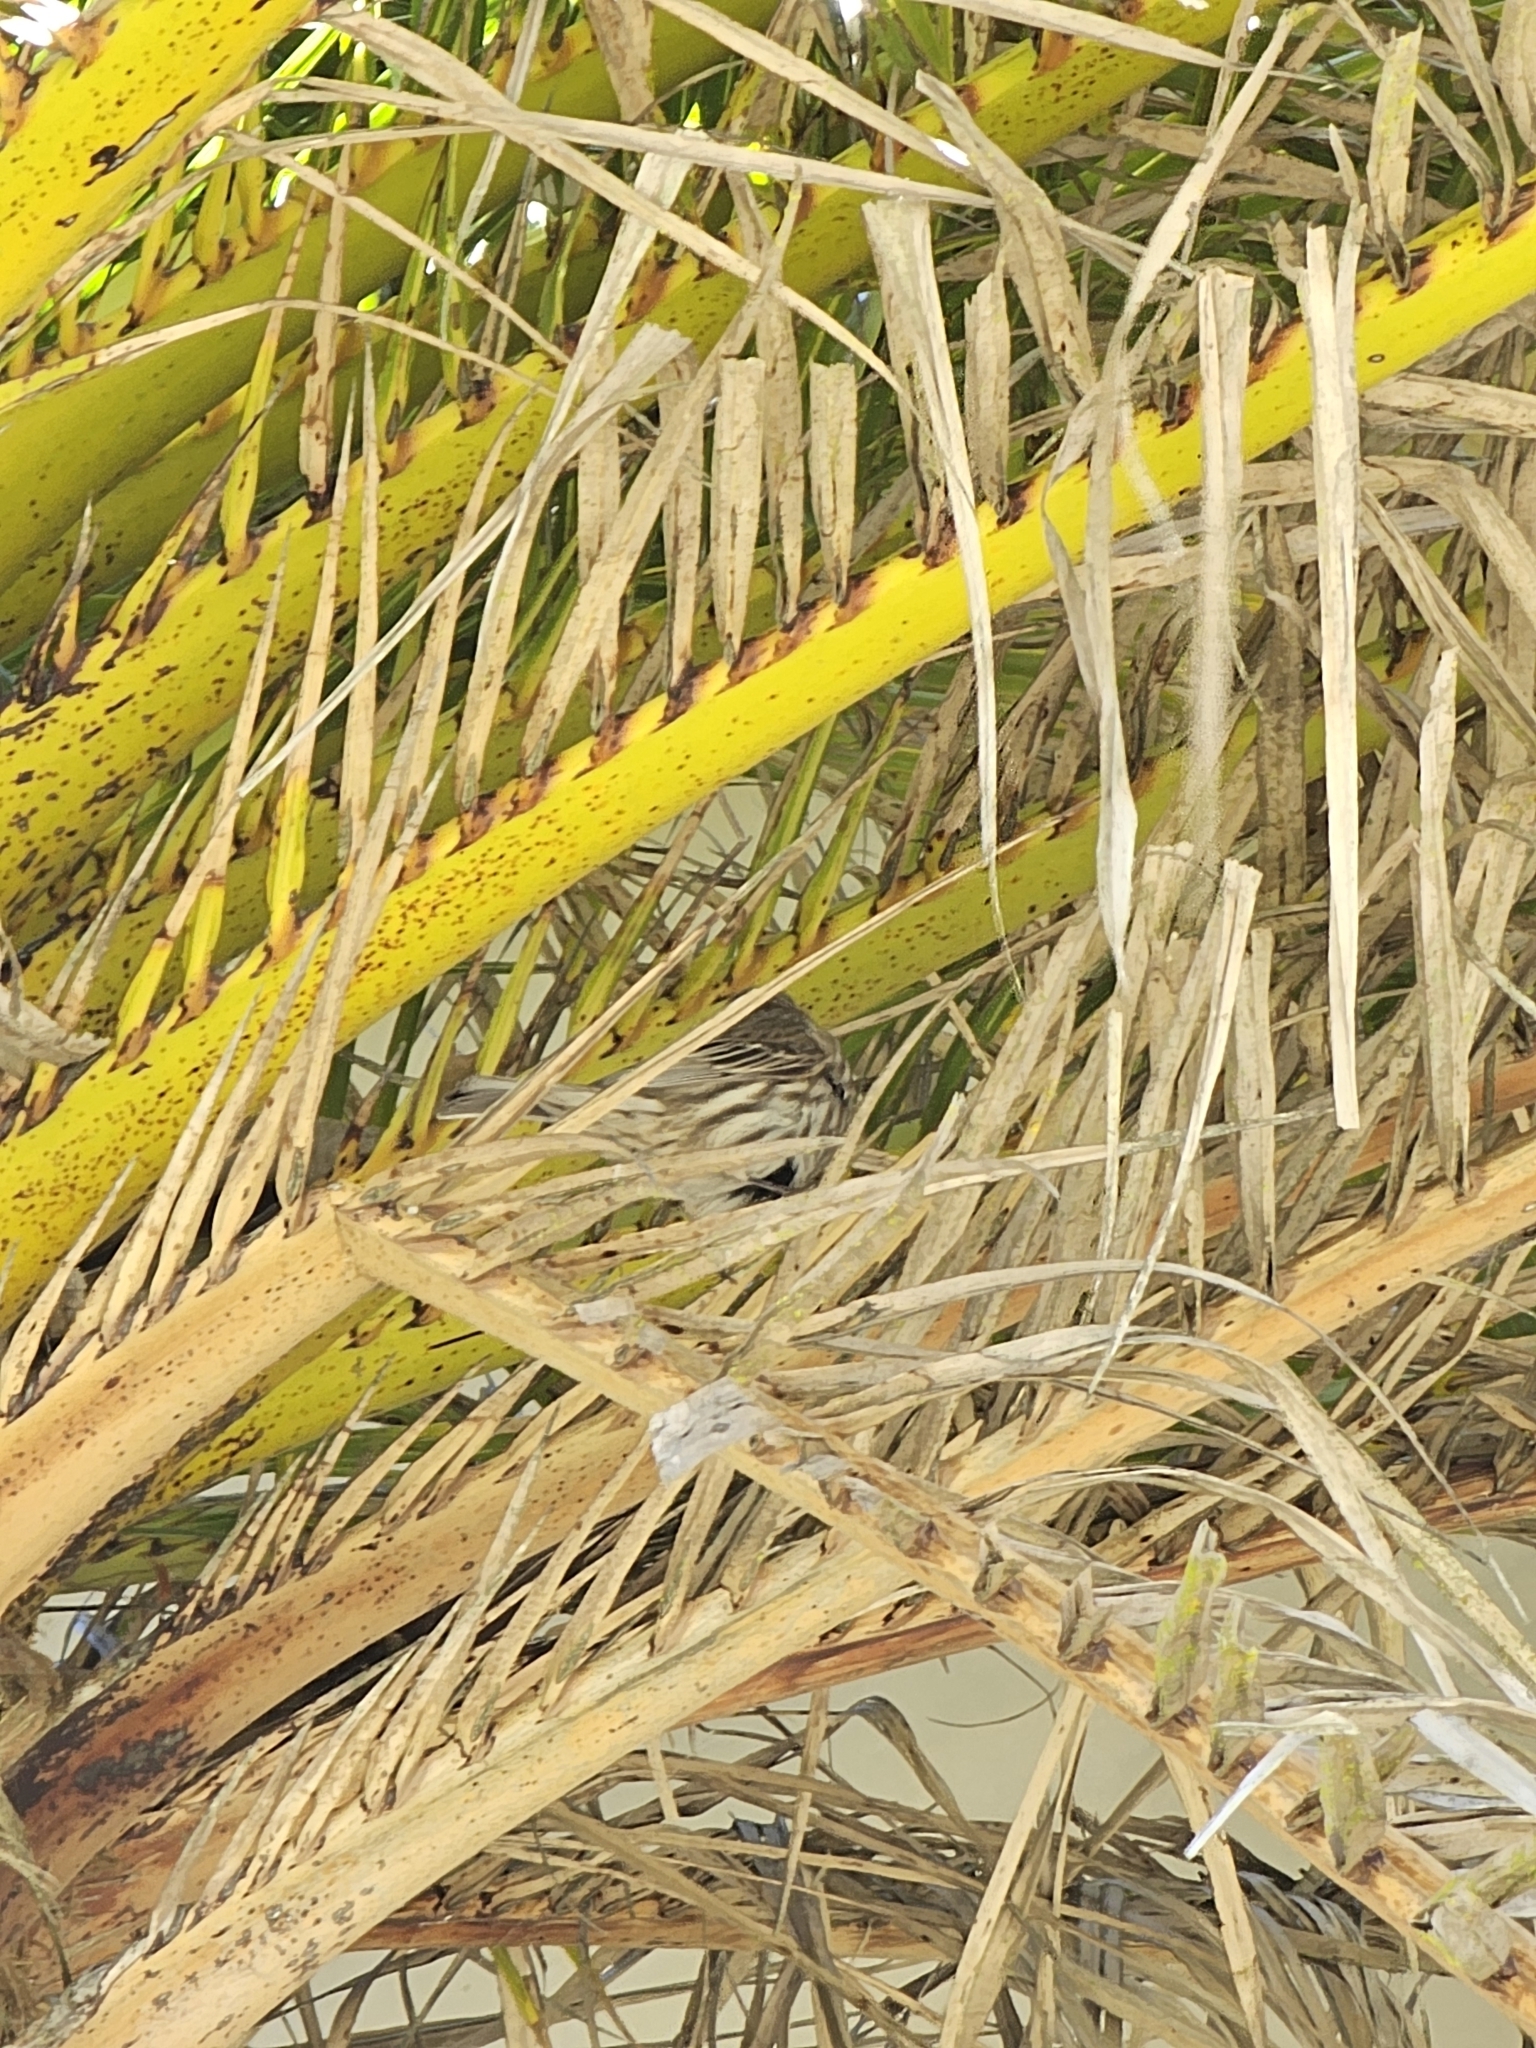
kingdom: Animalia
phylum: Chordata
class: Aves
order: Passeriformes
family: Fringillidae
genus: Haemorhous
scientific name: Haemorhous mexicanus
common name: House finch
